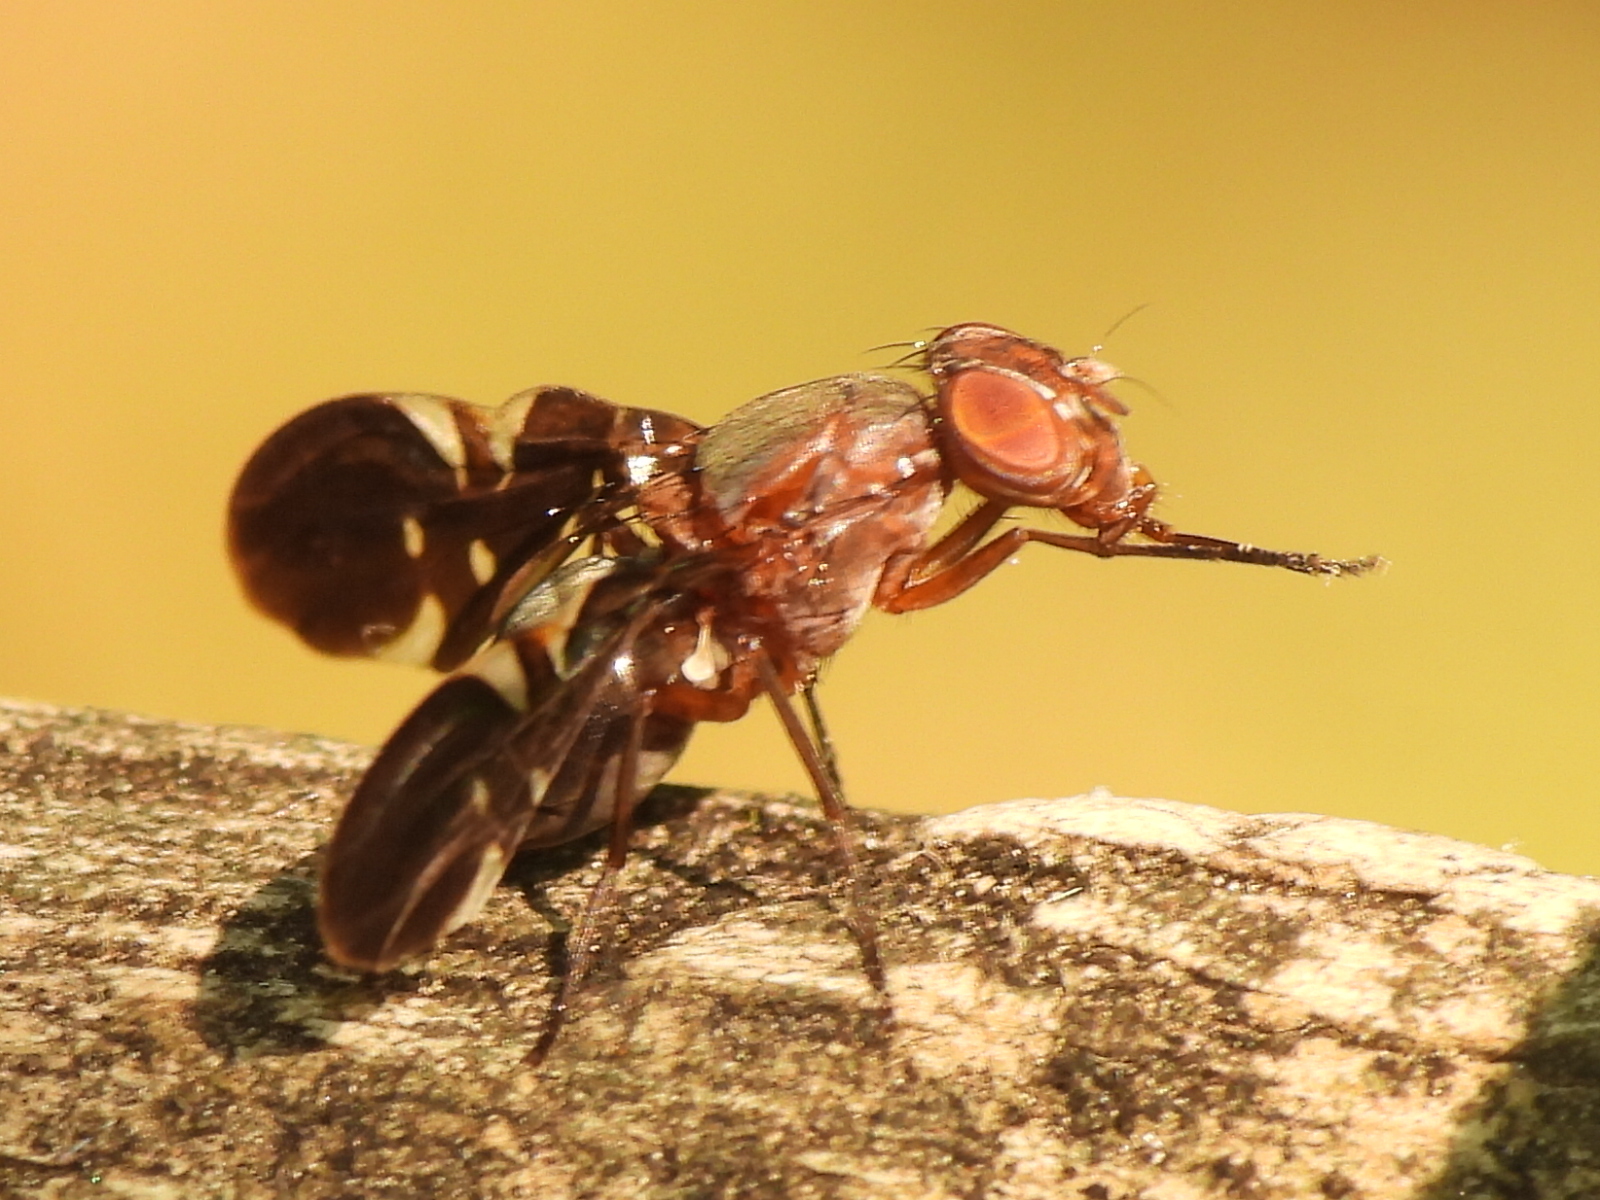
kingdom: Animalia
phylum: Arthropoda
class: Insecta
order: Diptera
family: Ulidiidae
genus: Delphinia
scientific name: Delphinia picta
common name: Common picture-winged fly
